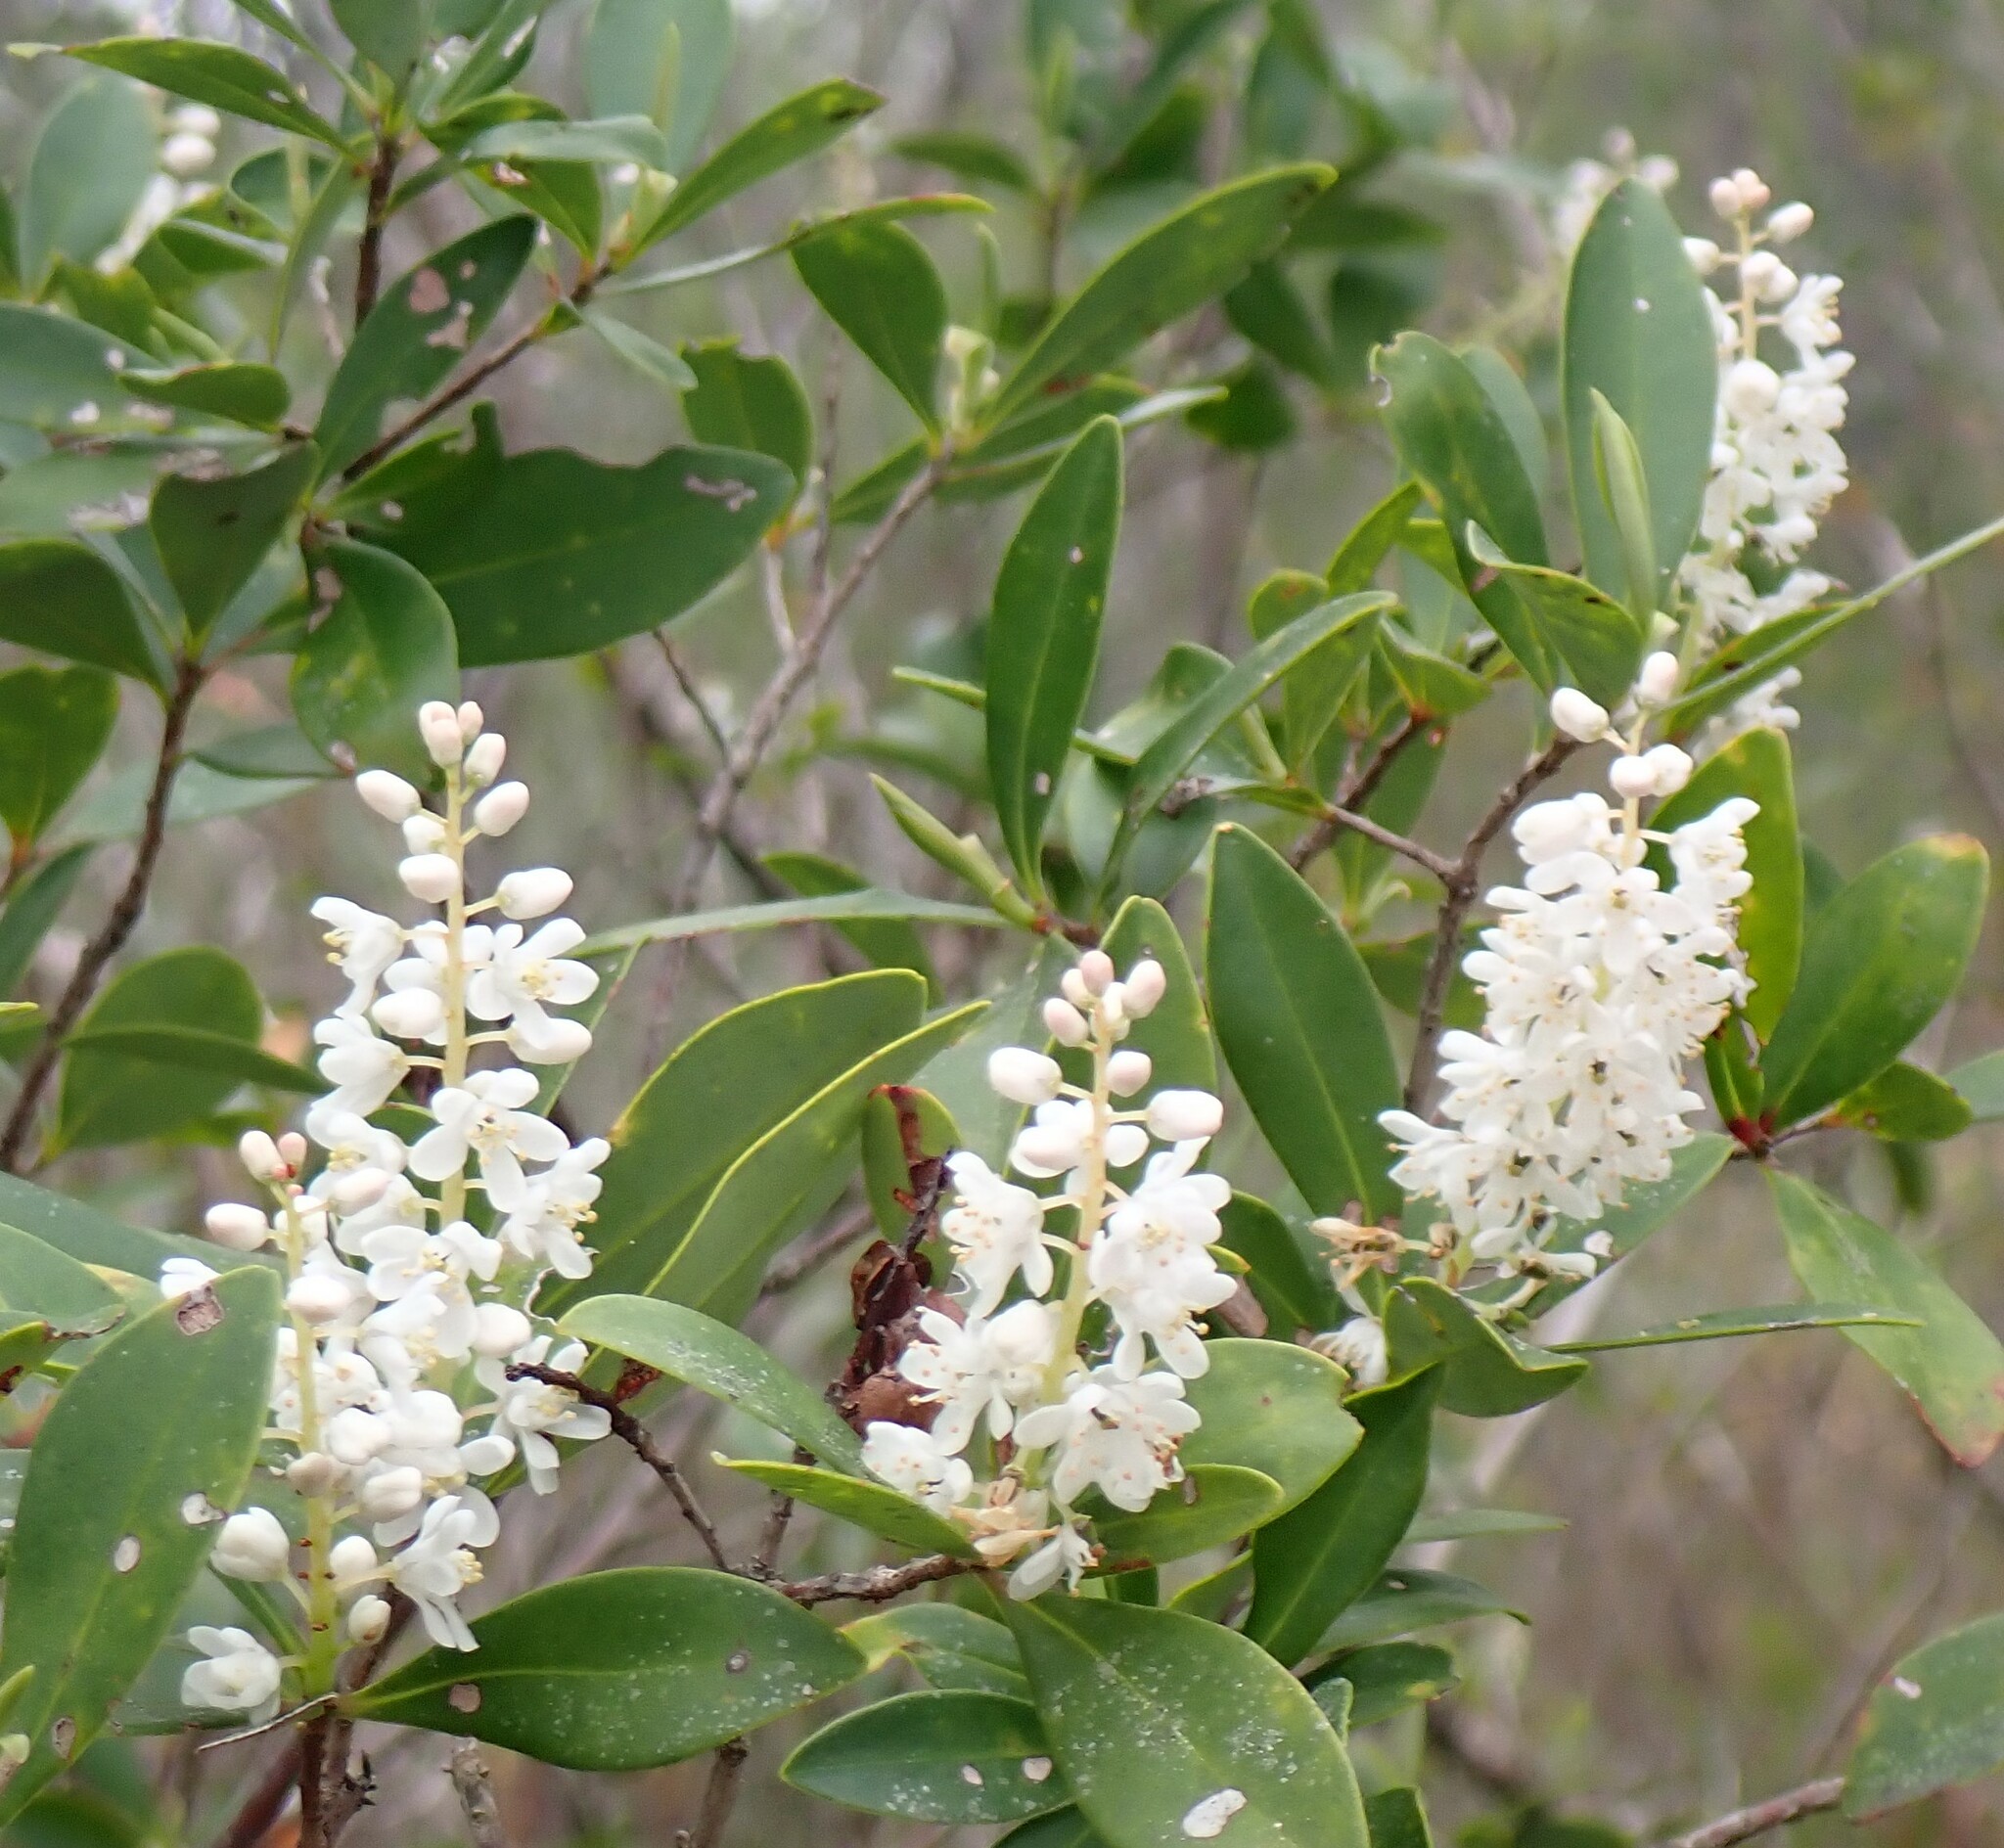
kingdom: Plantae
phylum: Tracheophyta
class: Magnoliopsida
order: Ericales
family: Cyrillaceae
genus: Cliftonia
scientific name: Cliftonia monophylla
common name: Titi
